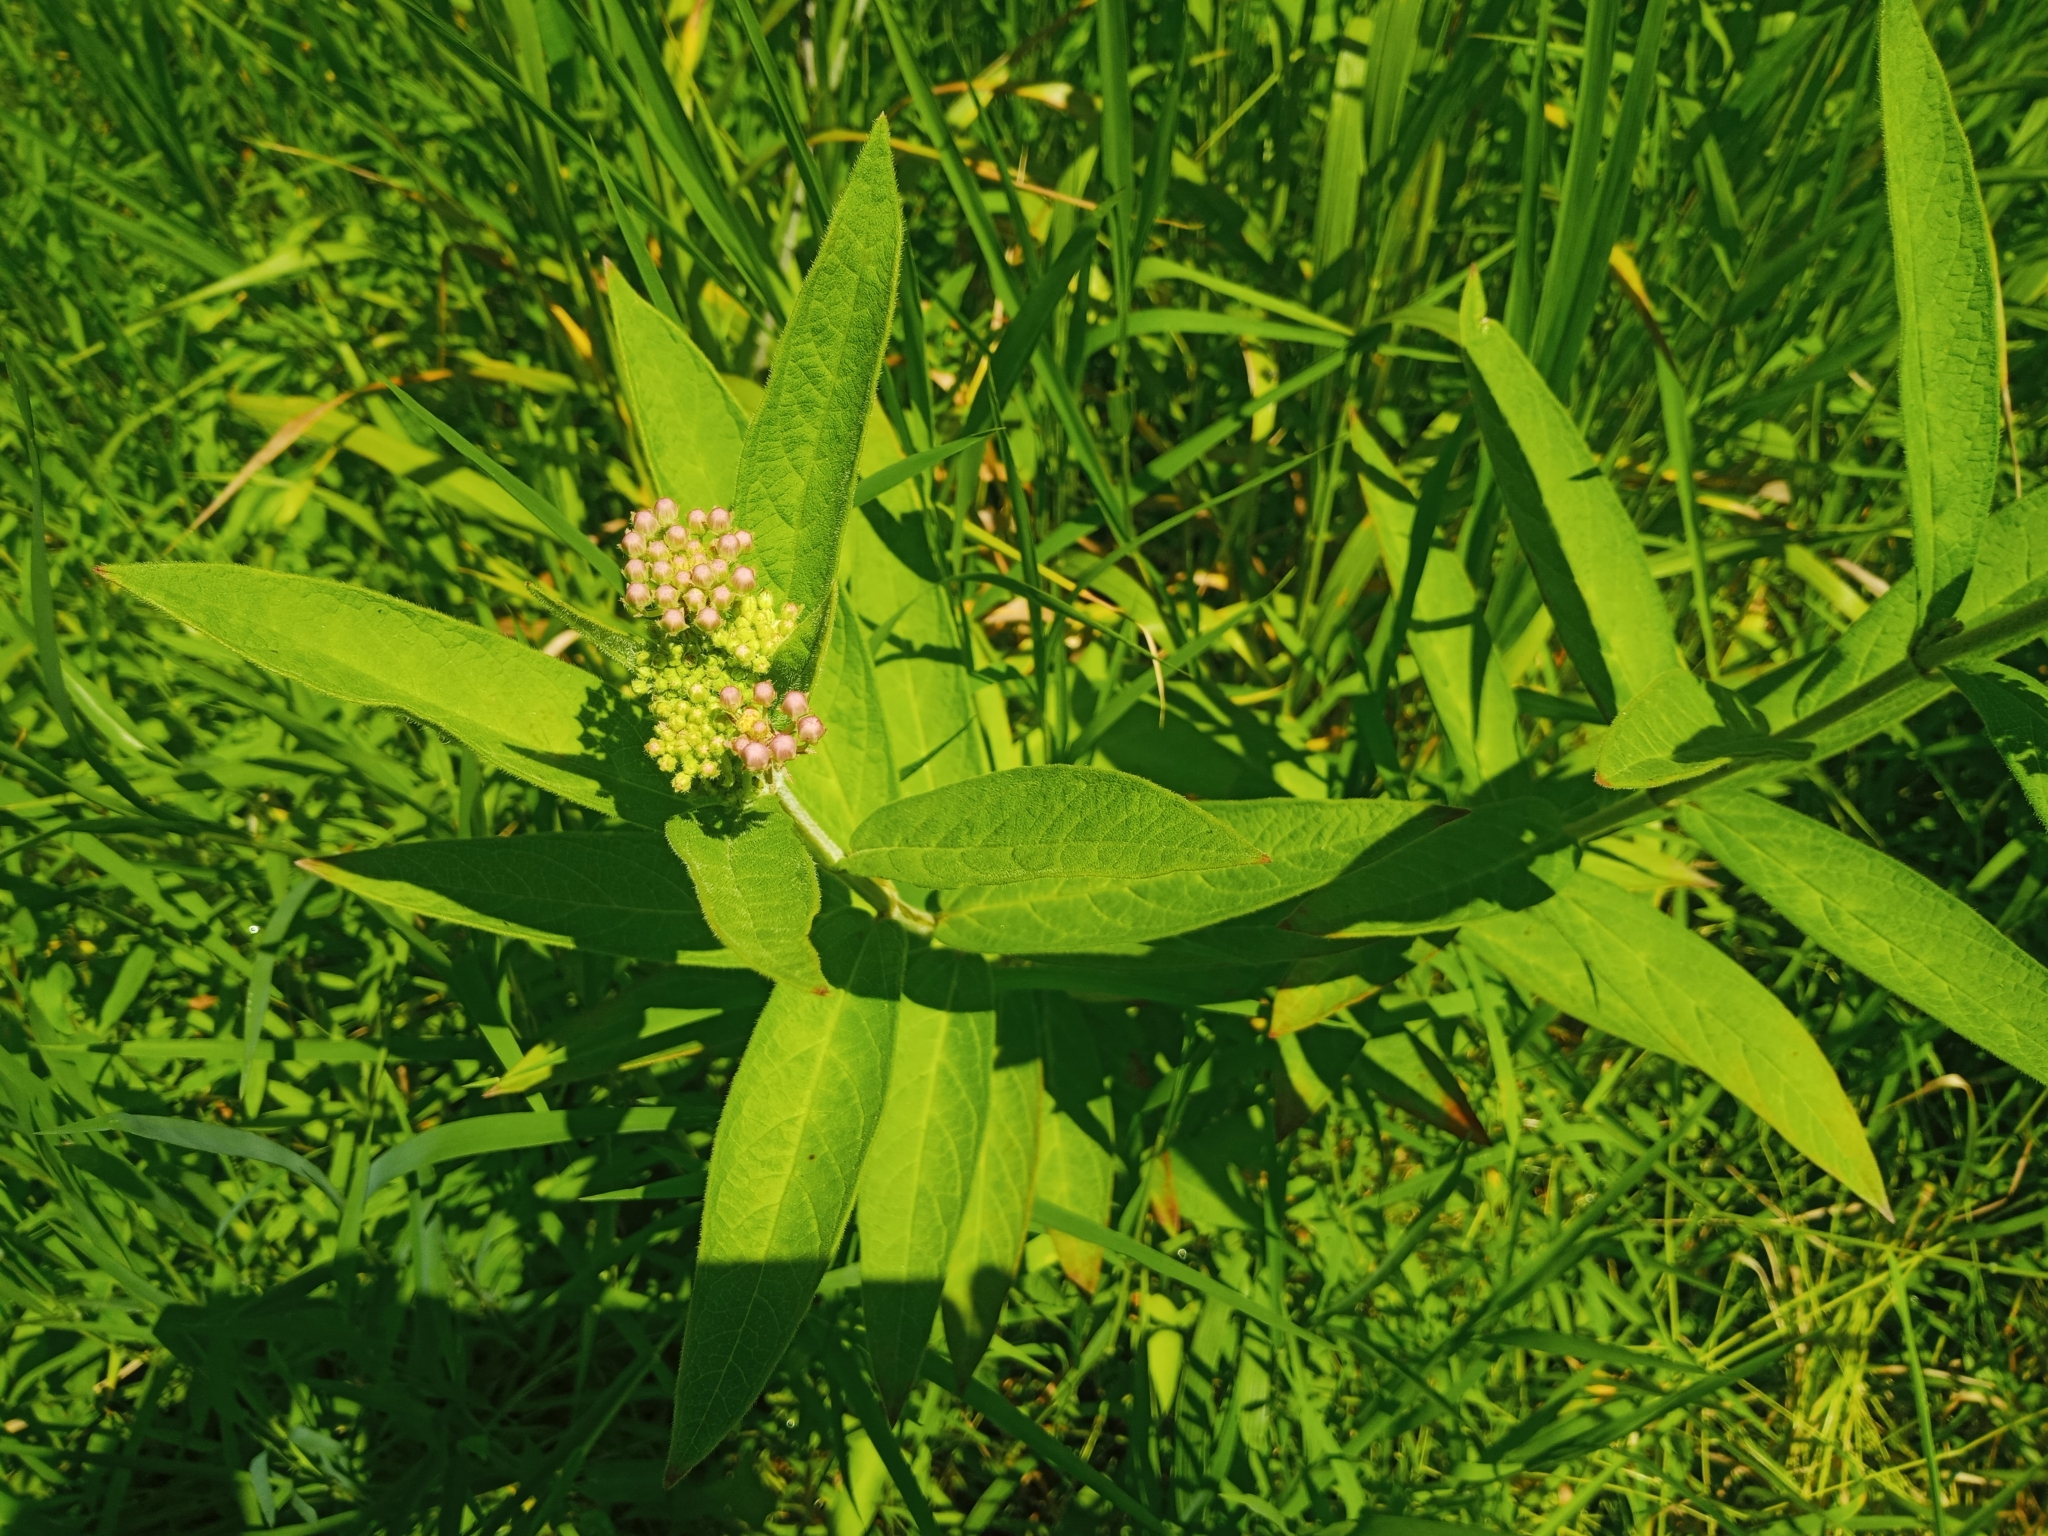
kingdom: Plantae
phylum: Tracheophyta
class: Magnoliopsida
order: Gentianales
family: Apocynaceae
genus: Asclepias
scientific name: Asclepias incarnata
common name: Swamp milkweed
